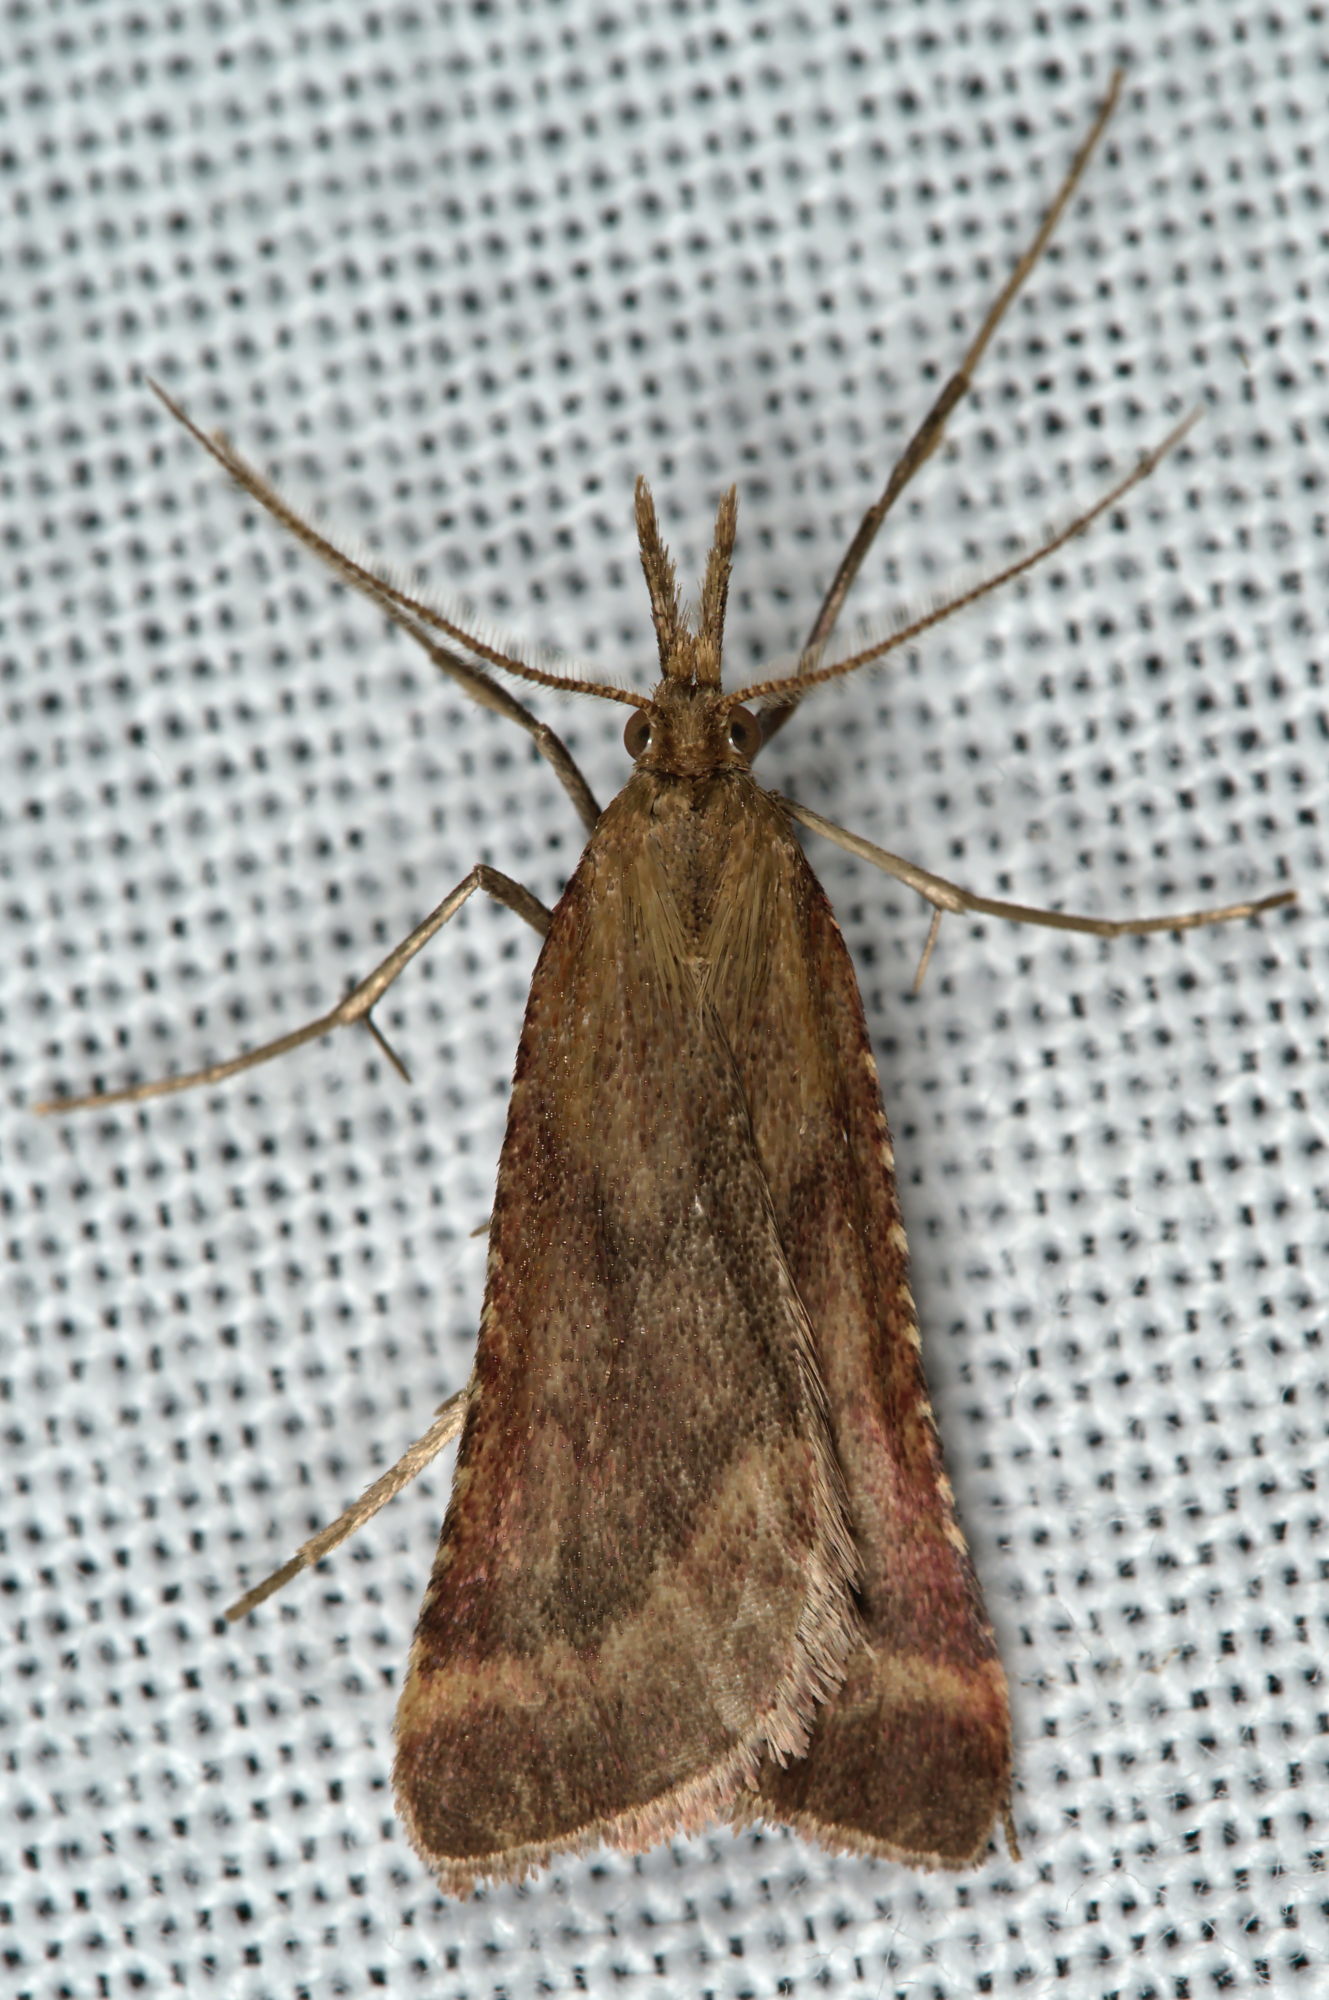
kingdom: Animalia
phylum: Arthropoda
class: Insecta
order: Lepidoptera
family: Pyralidae
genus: Synaphe
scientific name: Synaphe punctalis
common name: Long-legged tabby
